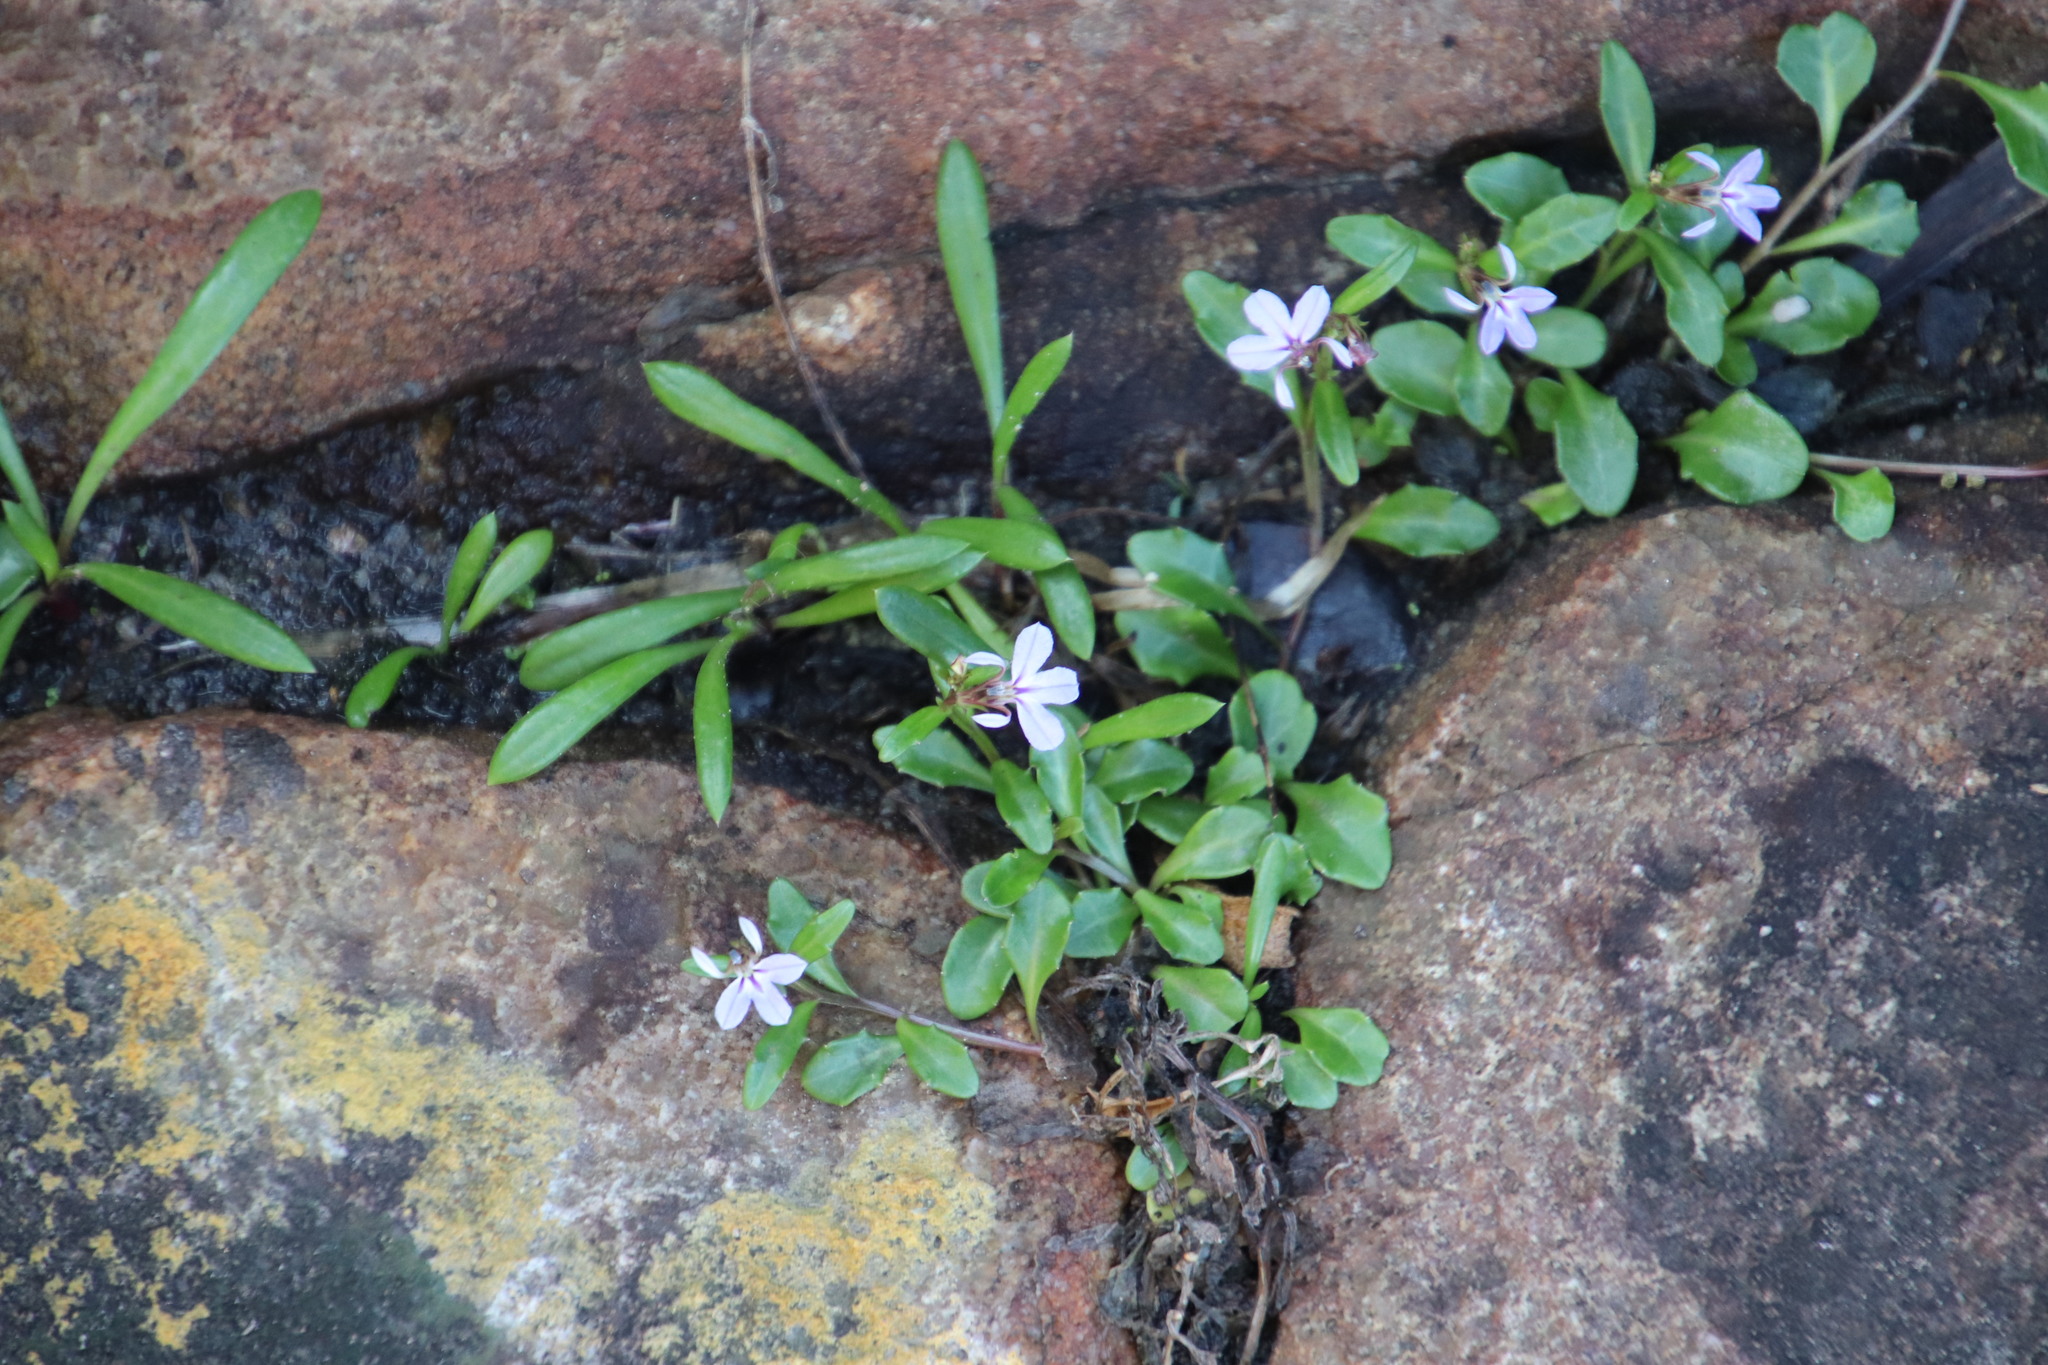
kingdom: Plantae
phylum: Tracheophyta
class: Magnoliopsida
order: Asterales
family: Campanulaceae
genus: Lobelia
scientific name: Lobelia anceps
